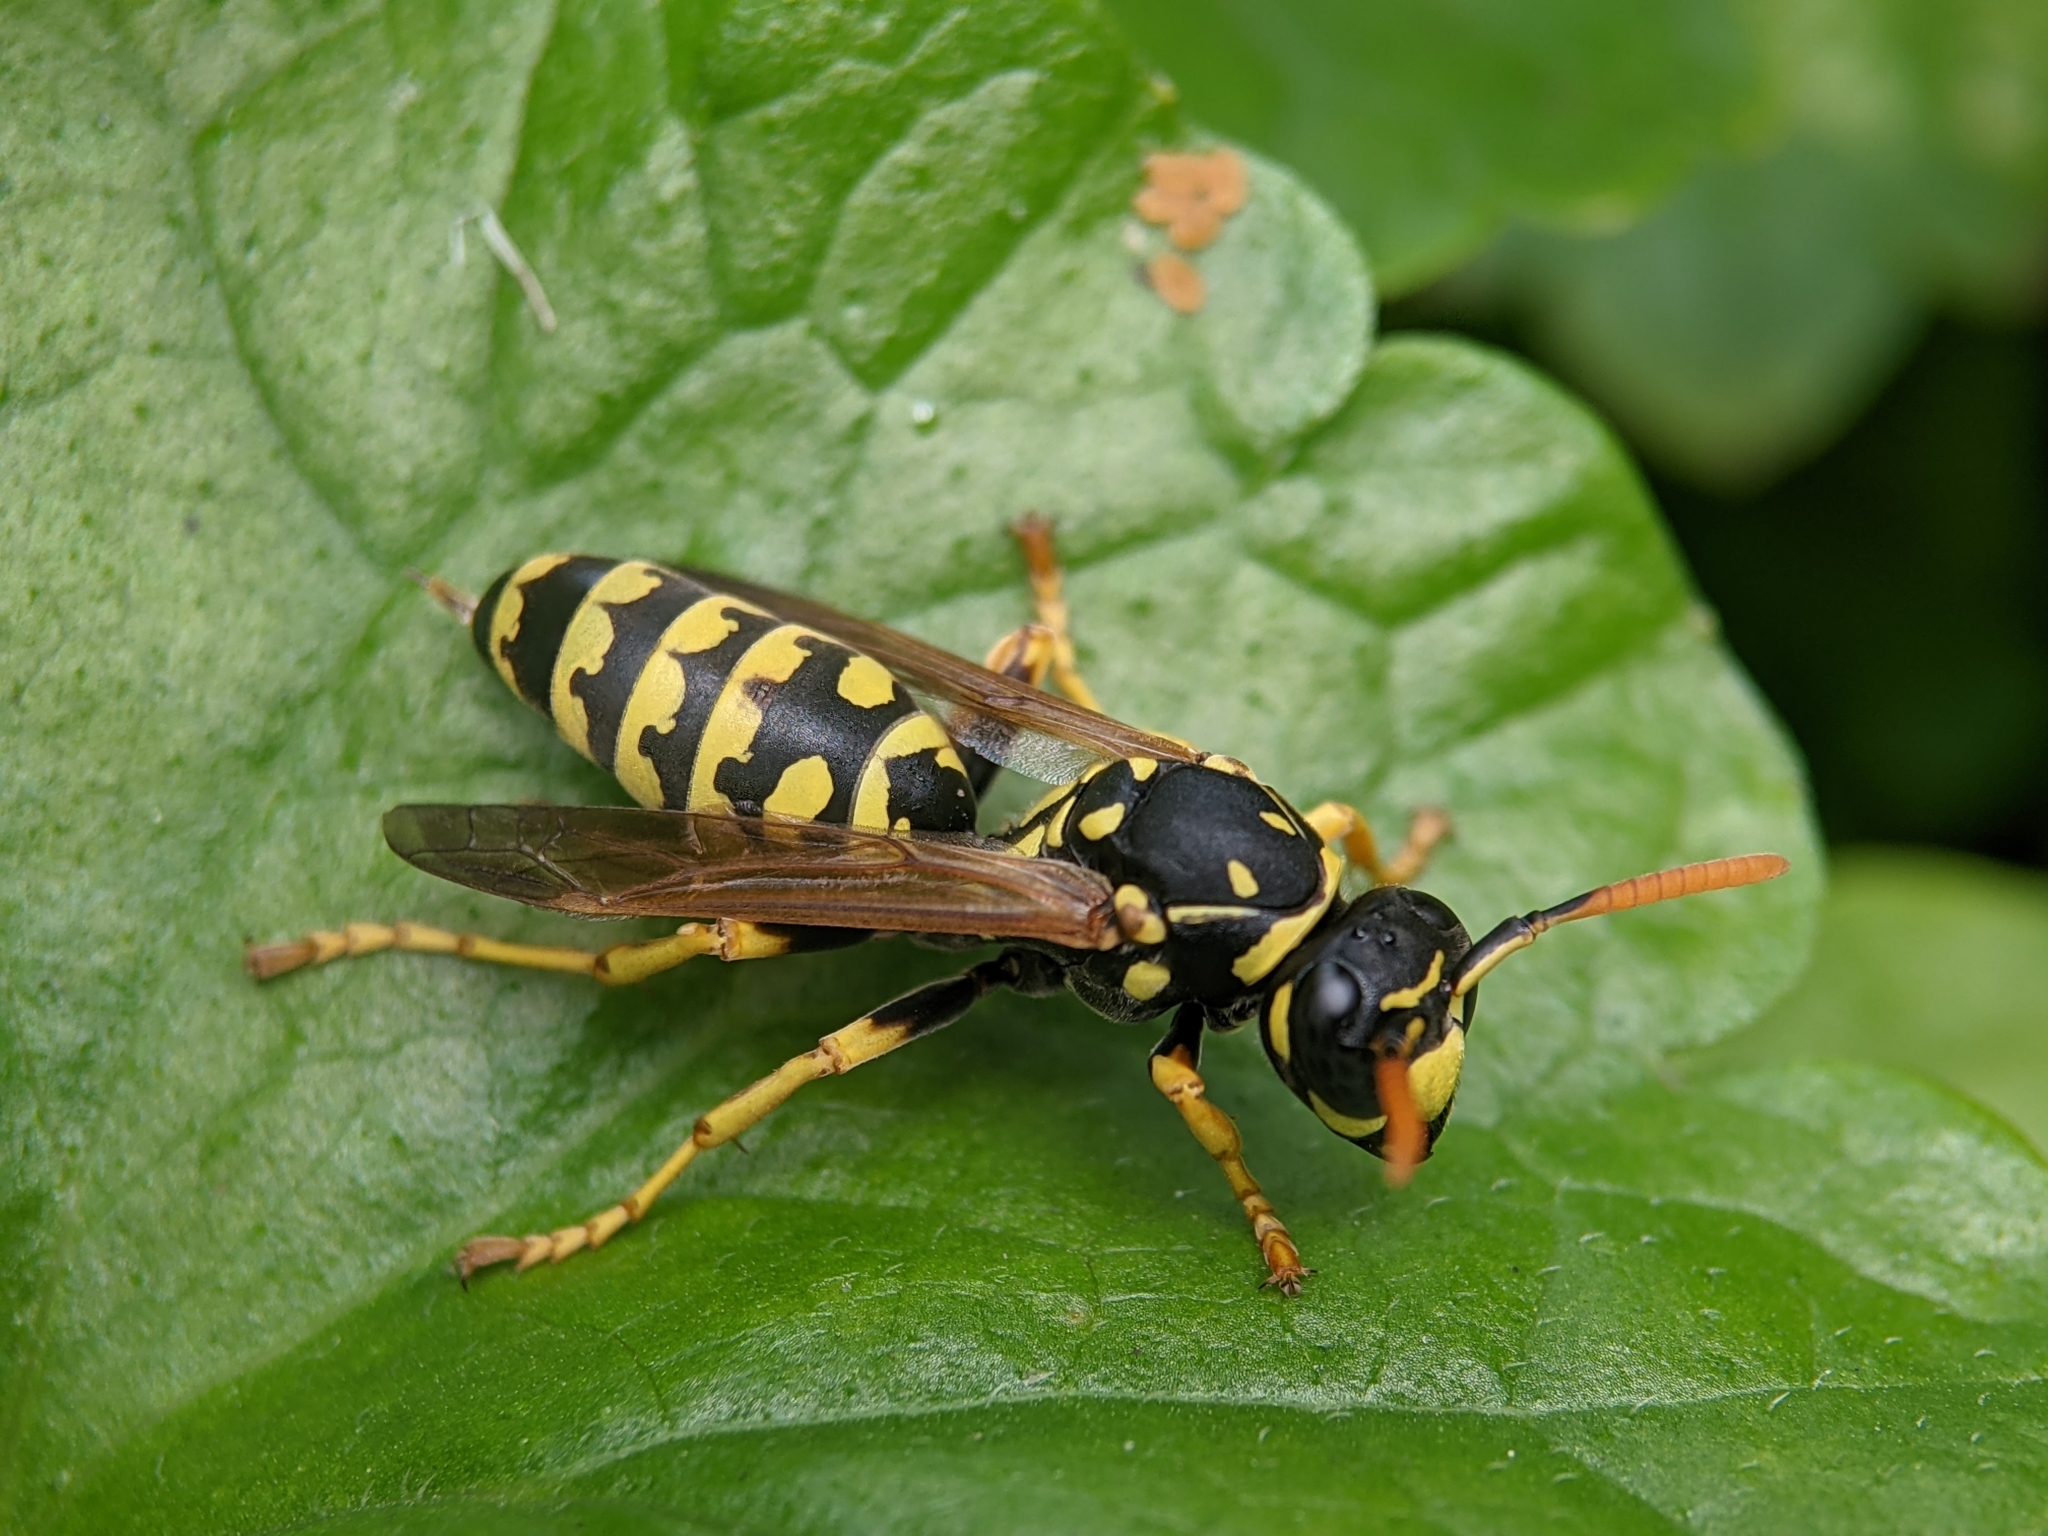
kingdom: Animalia
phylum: Arthropoda
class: Insecta
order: Hymenoptera
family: Eumenidae
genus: Polistes
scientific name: Polistes dominula
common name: Paper wasp
